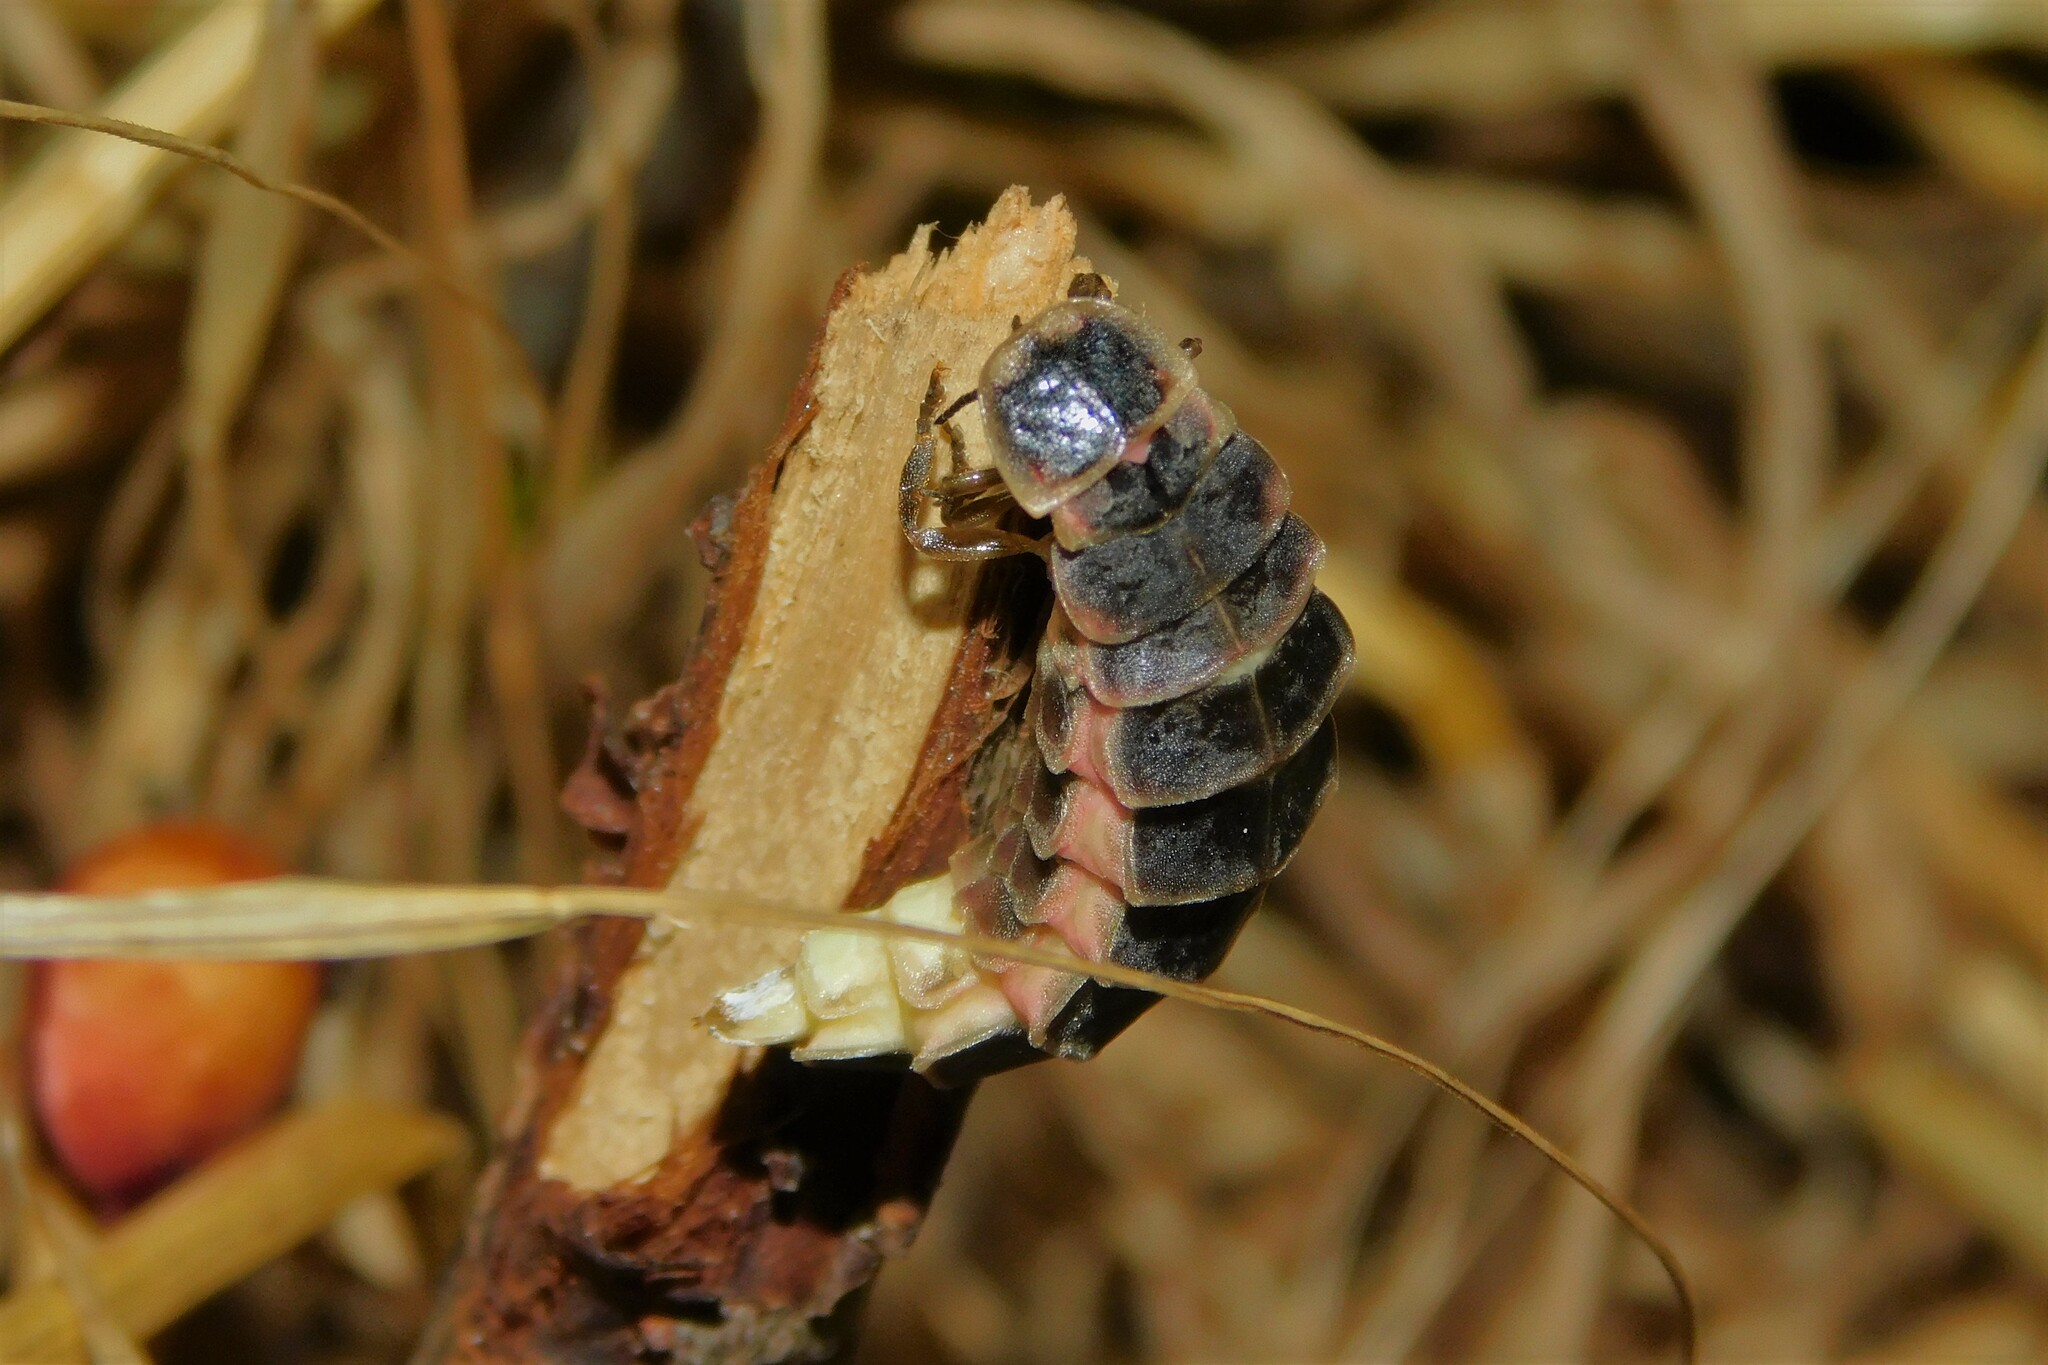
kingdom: Animalia
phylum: Arthropoda
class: Insecta
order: Coleoptera
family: Lampyridae
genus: Lampyris
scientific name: Lampyris noctiluca
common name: Glow-worm
